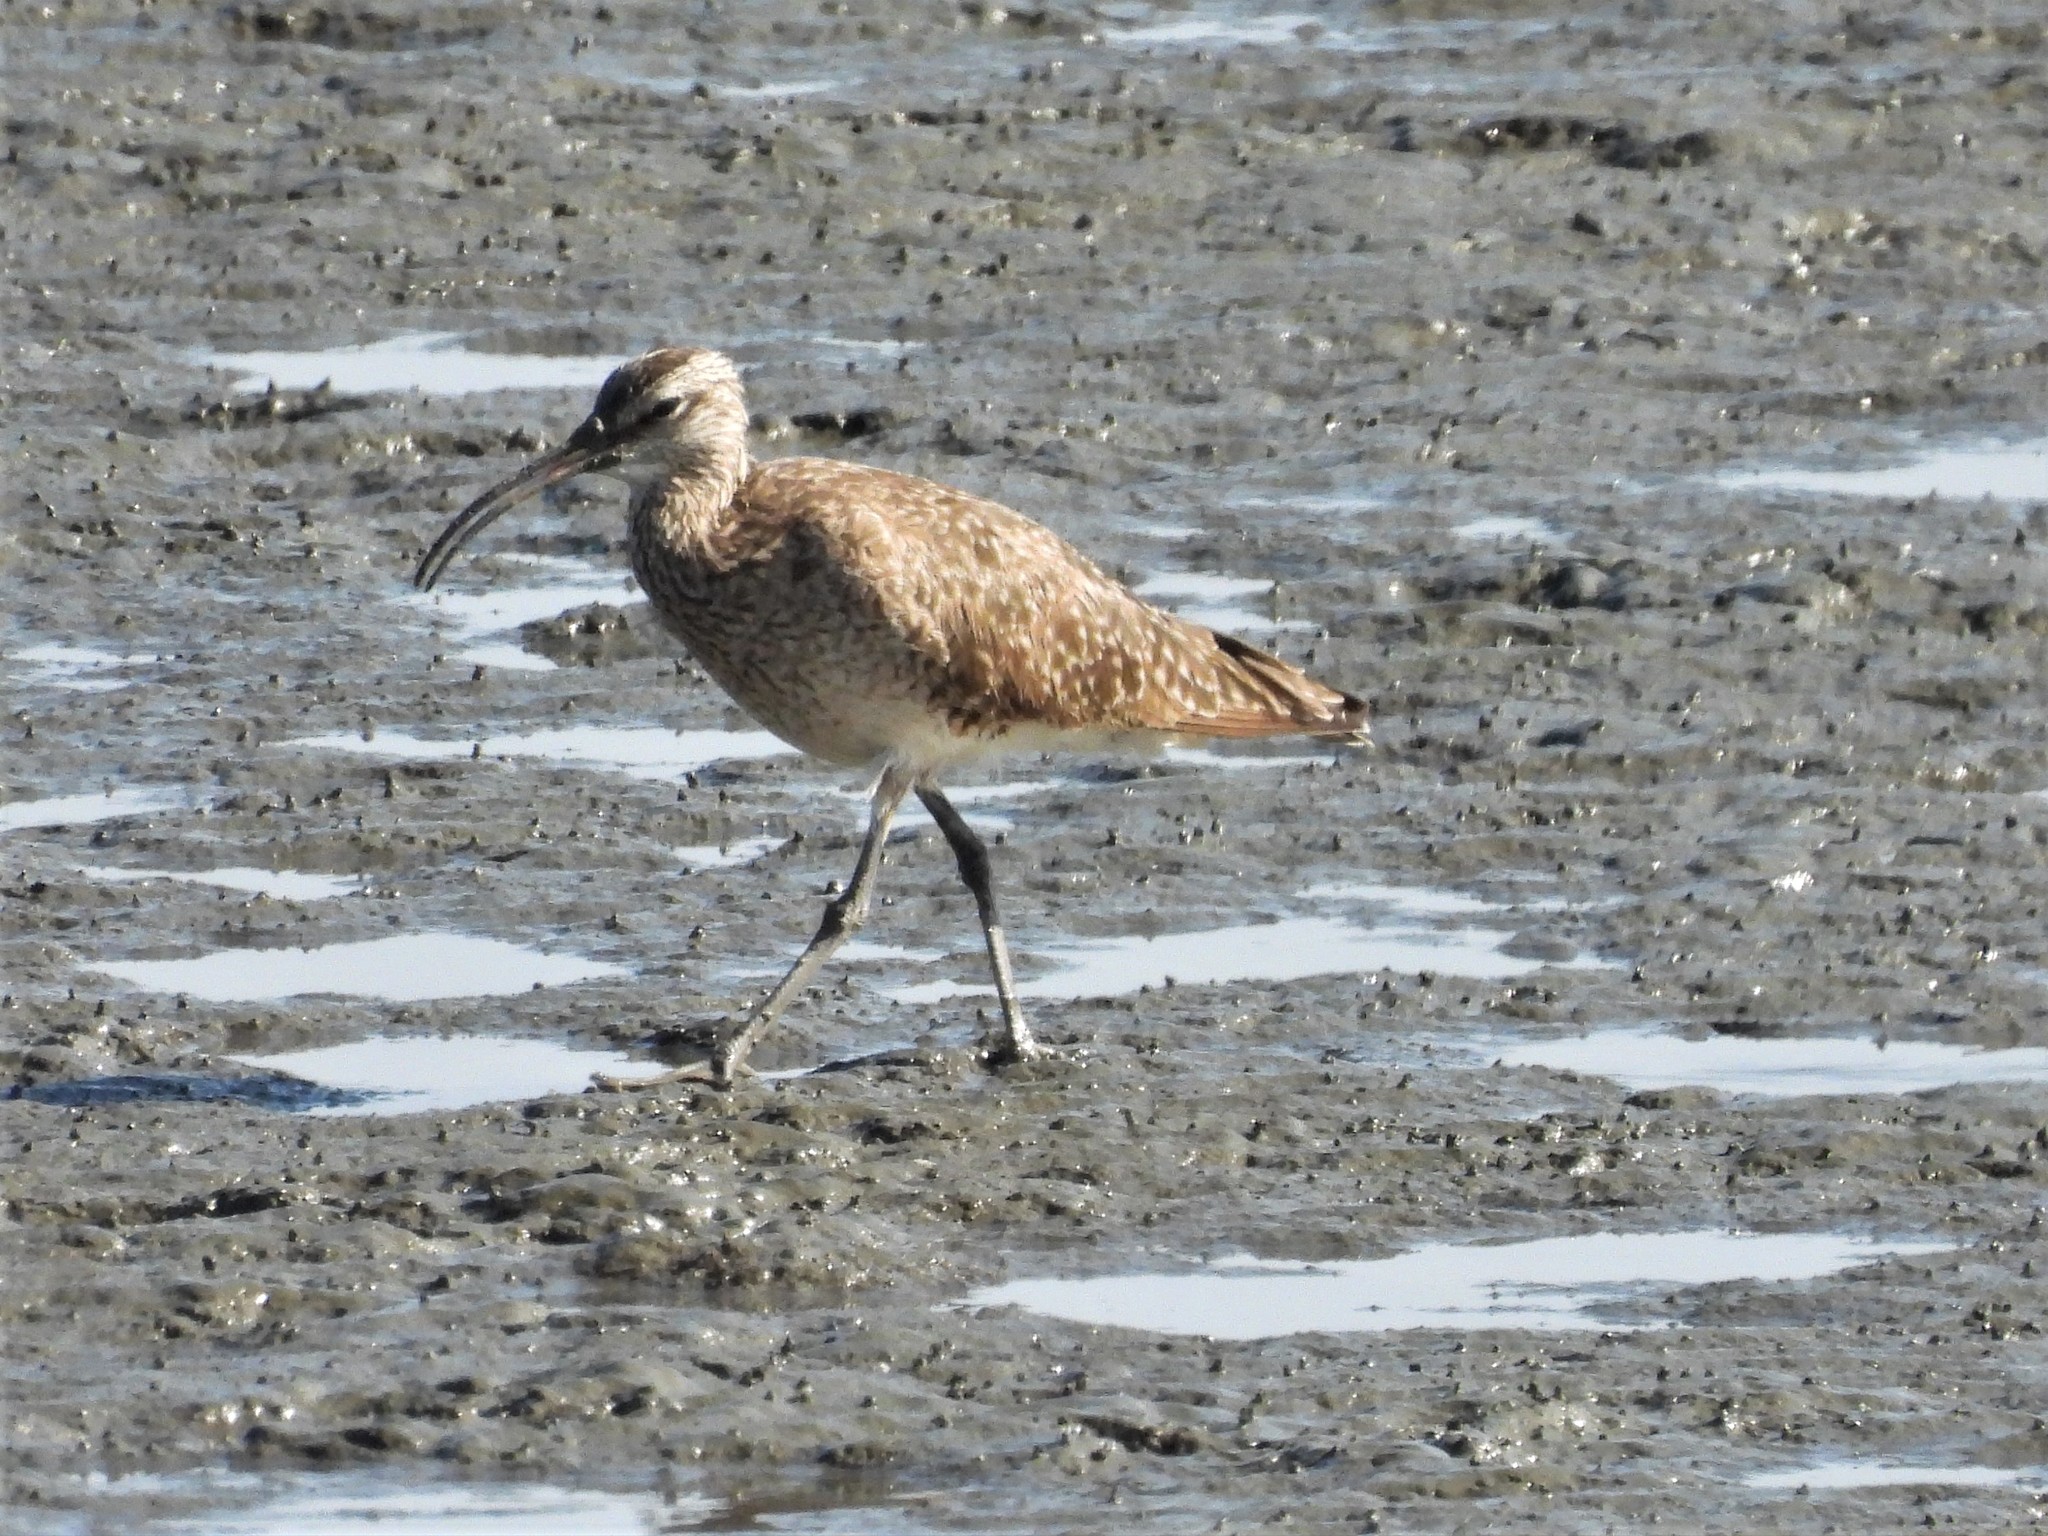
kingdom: Animalia
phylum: Chordata
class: Aves
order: Charadriiformes
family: Scolopacidae
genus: Numenius
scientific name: Numenius phaeopus
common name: Whimbrel
